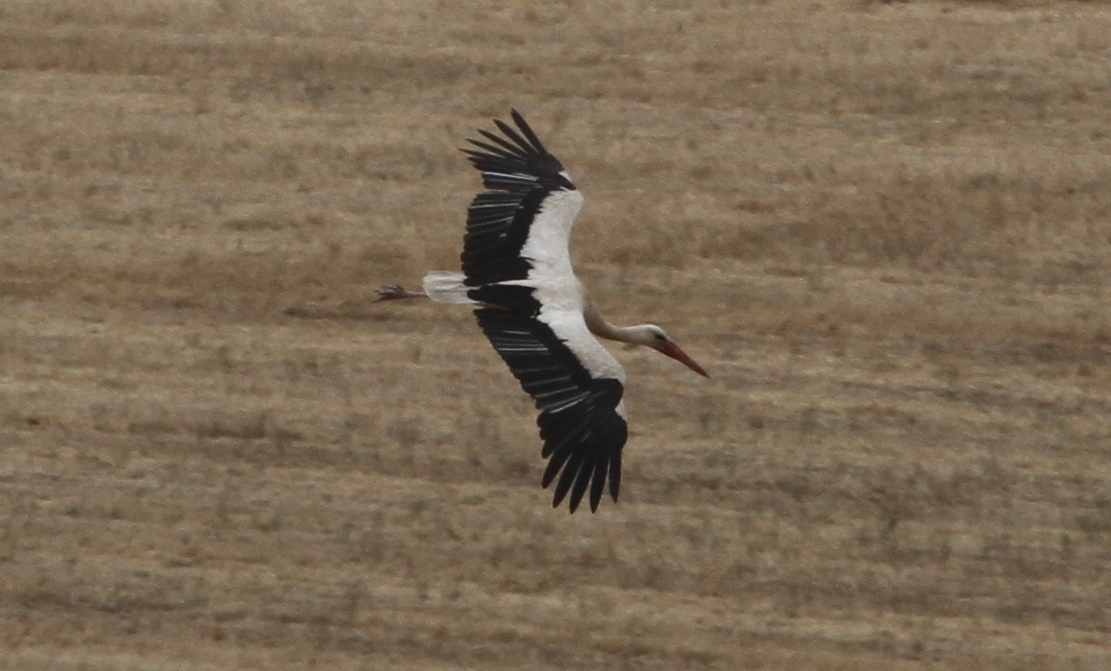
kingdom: Animalia
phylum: Chordata
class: Aves
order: Ciconiiformes
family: Ciconiidae
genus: Ciconia
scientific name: Ciconia ciconia
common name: White stork
